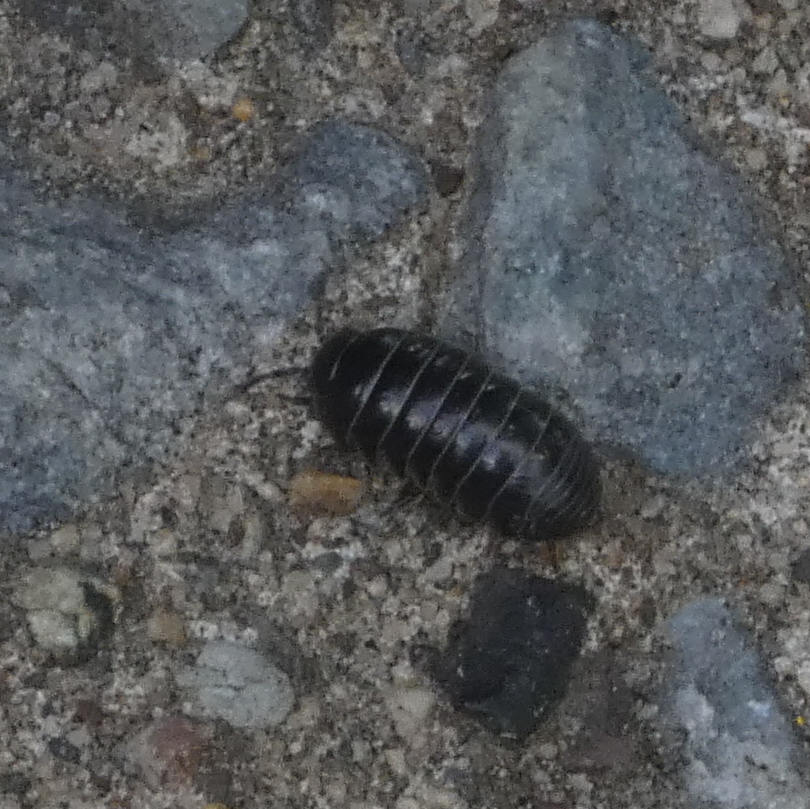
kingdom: Animalia
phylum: Arthropoda
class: Malacostraca
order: Isopoda
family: Armadillidiidae
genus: Armadillidium
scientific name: Armadillidium vulgare
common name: Common pill woodlouse
